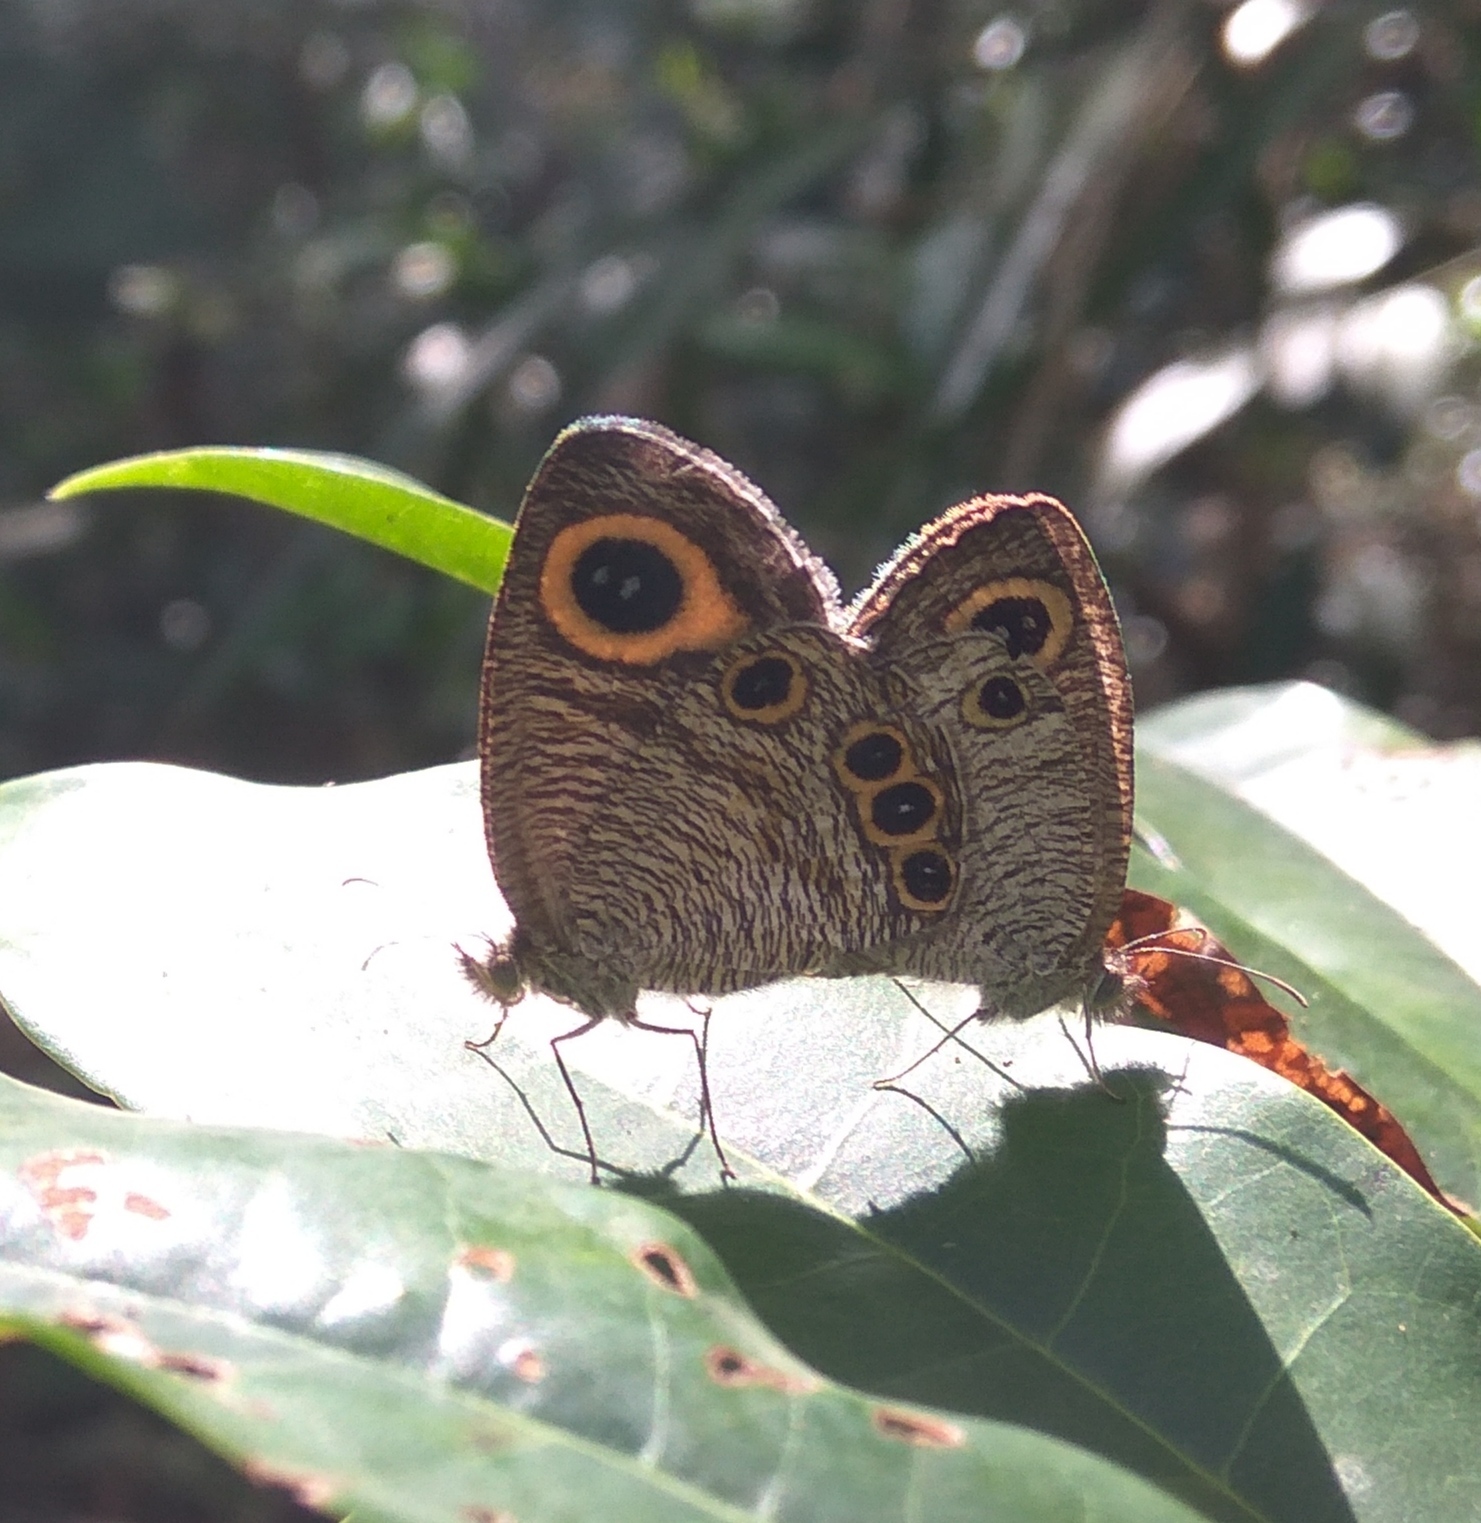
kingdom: Animalia
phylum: Arthropoda
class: Insecta
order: Lepidoptera
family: Nymphalidae
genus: Ypthima
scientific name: Ypthima huebneri
